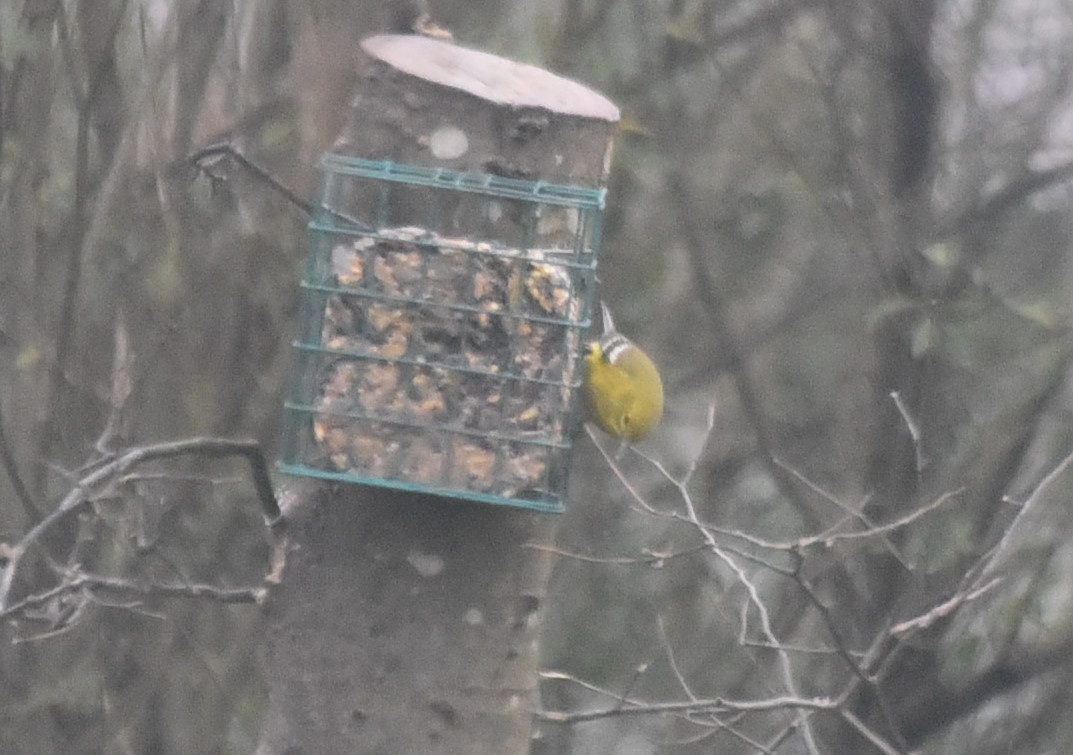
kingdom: Animalia
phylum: Chordata
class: Aves
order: Passeriformes
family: Parulidae
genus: Setophaga
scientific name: Setophaga pinus
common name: Pine warbler
